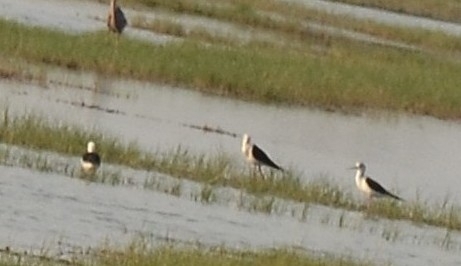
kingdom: Animalia
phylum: Chordata
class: Aves
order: Charadriiformes
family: Recurvirostridae
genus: Himantopus
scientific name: Himantopus himantopus
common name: Black-winged stilt
